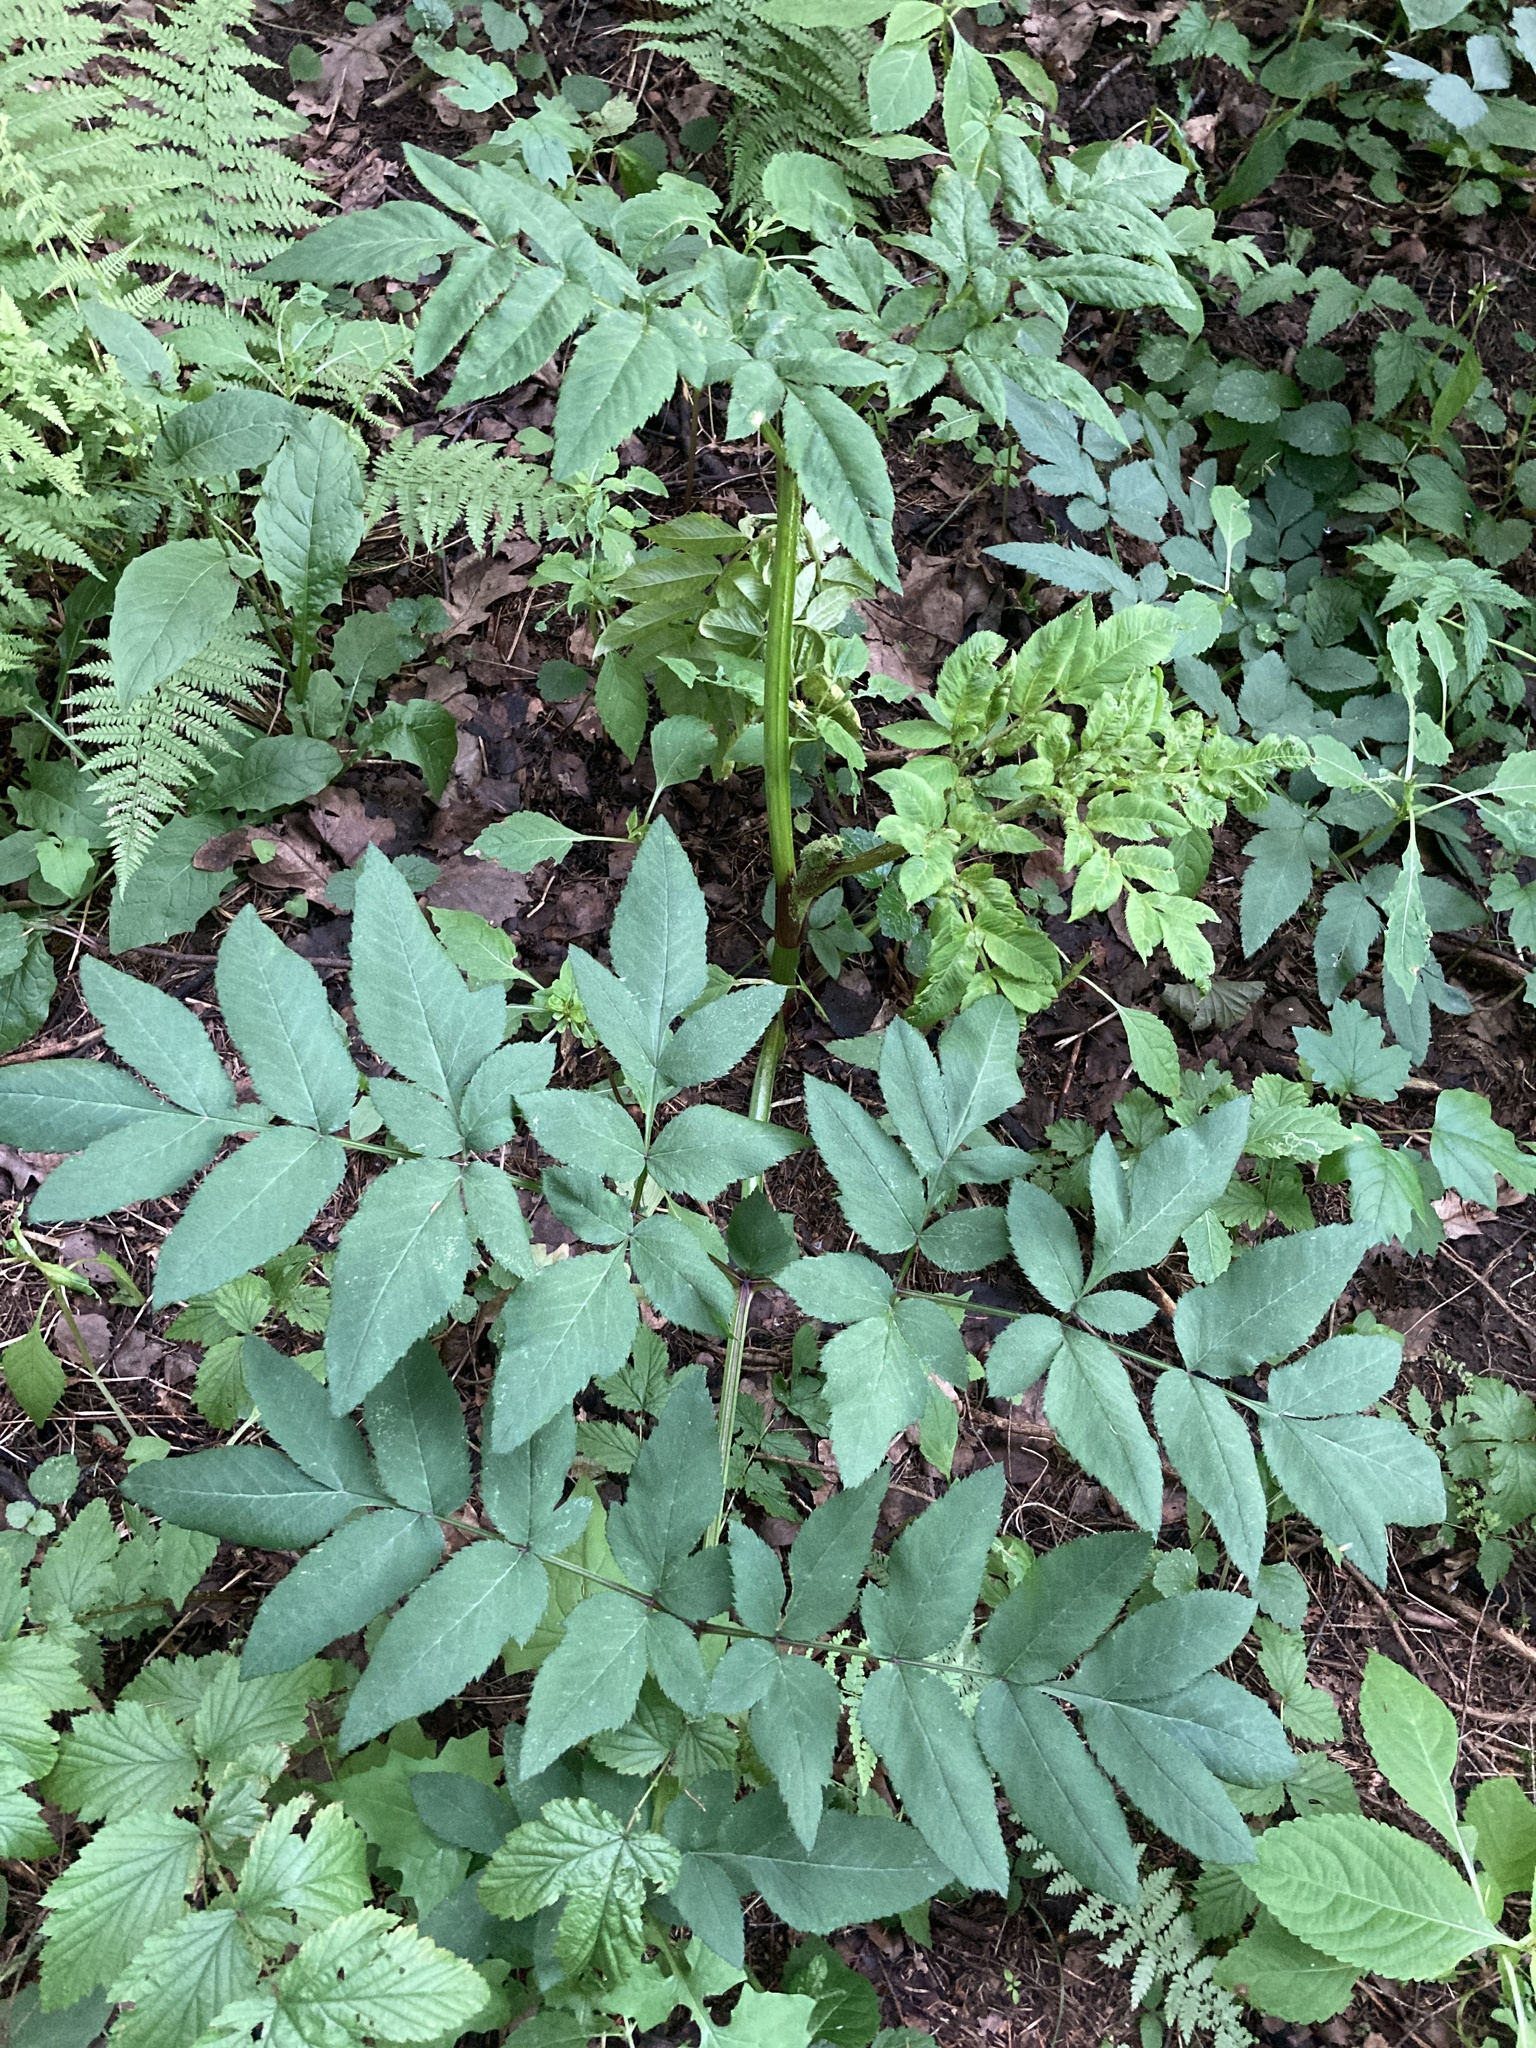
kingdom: Plantae
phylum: Tracheophyta
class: Magnoliopsida
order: Apiales
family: Apiaceae
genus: Angelica
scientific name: Angelica sylvestris
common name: Wild angelica
